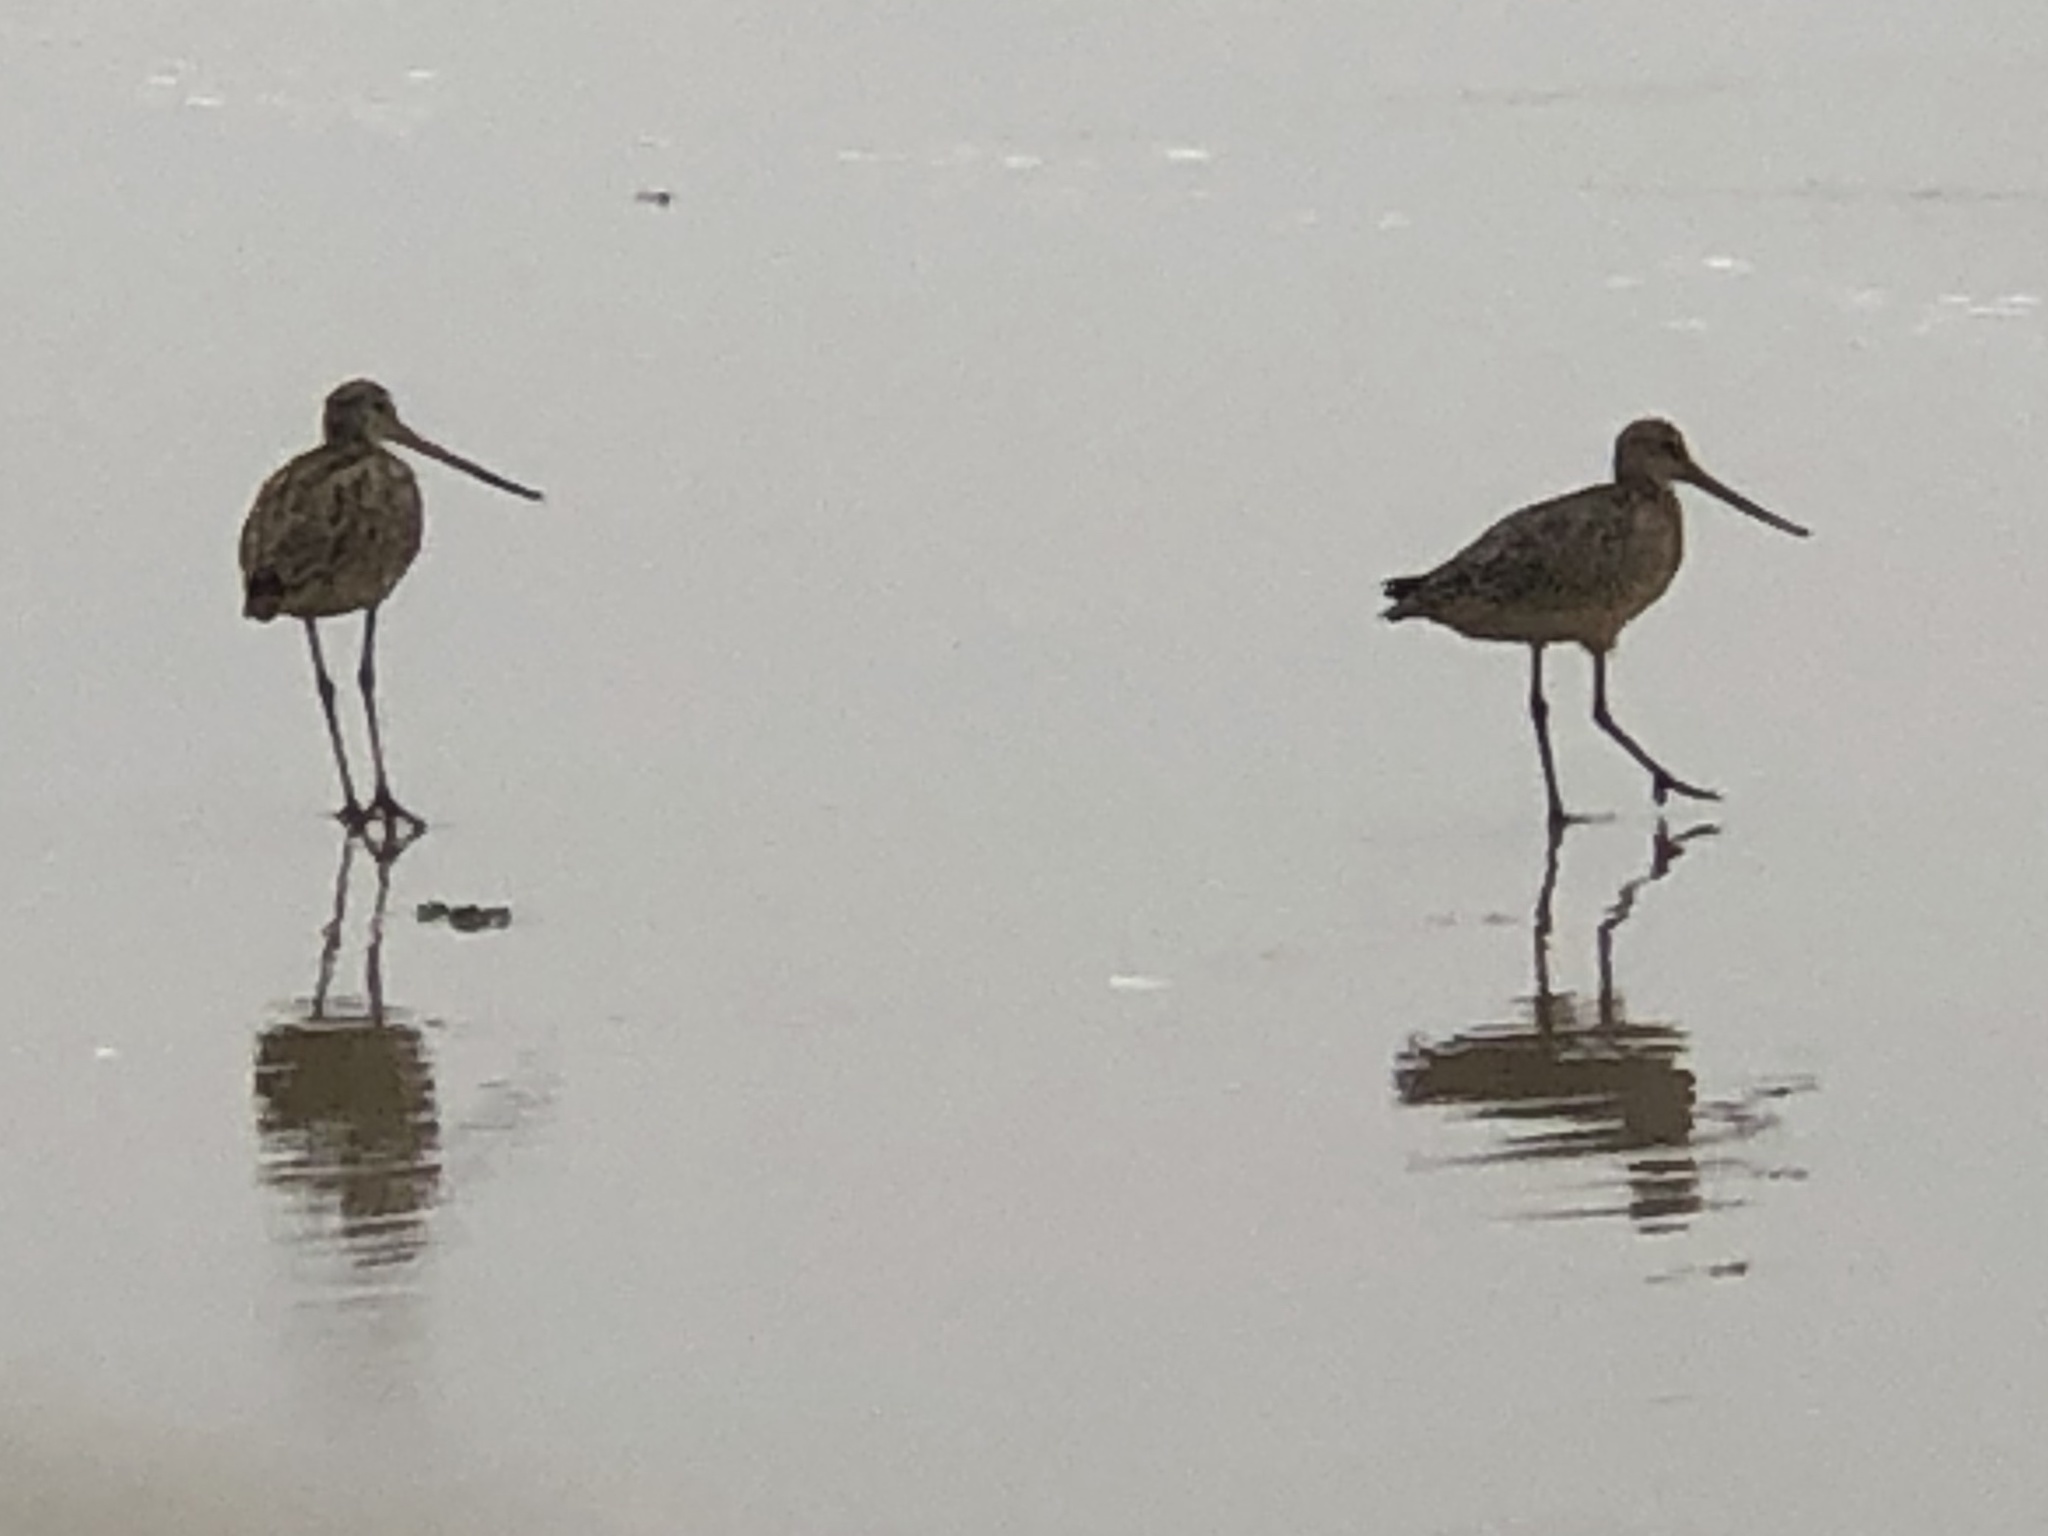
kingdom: Animalia
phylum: Chordata
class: Aves
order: Charadriiformes
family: Scolopacidae
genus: Limosa
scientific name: Limosa fedoa
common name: Marbled godwit
